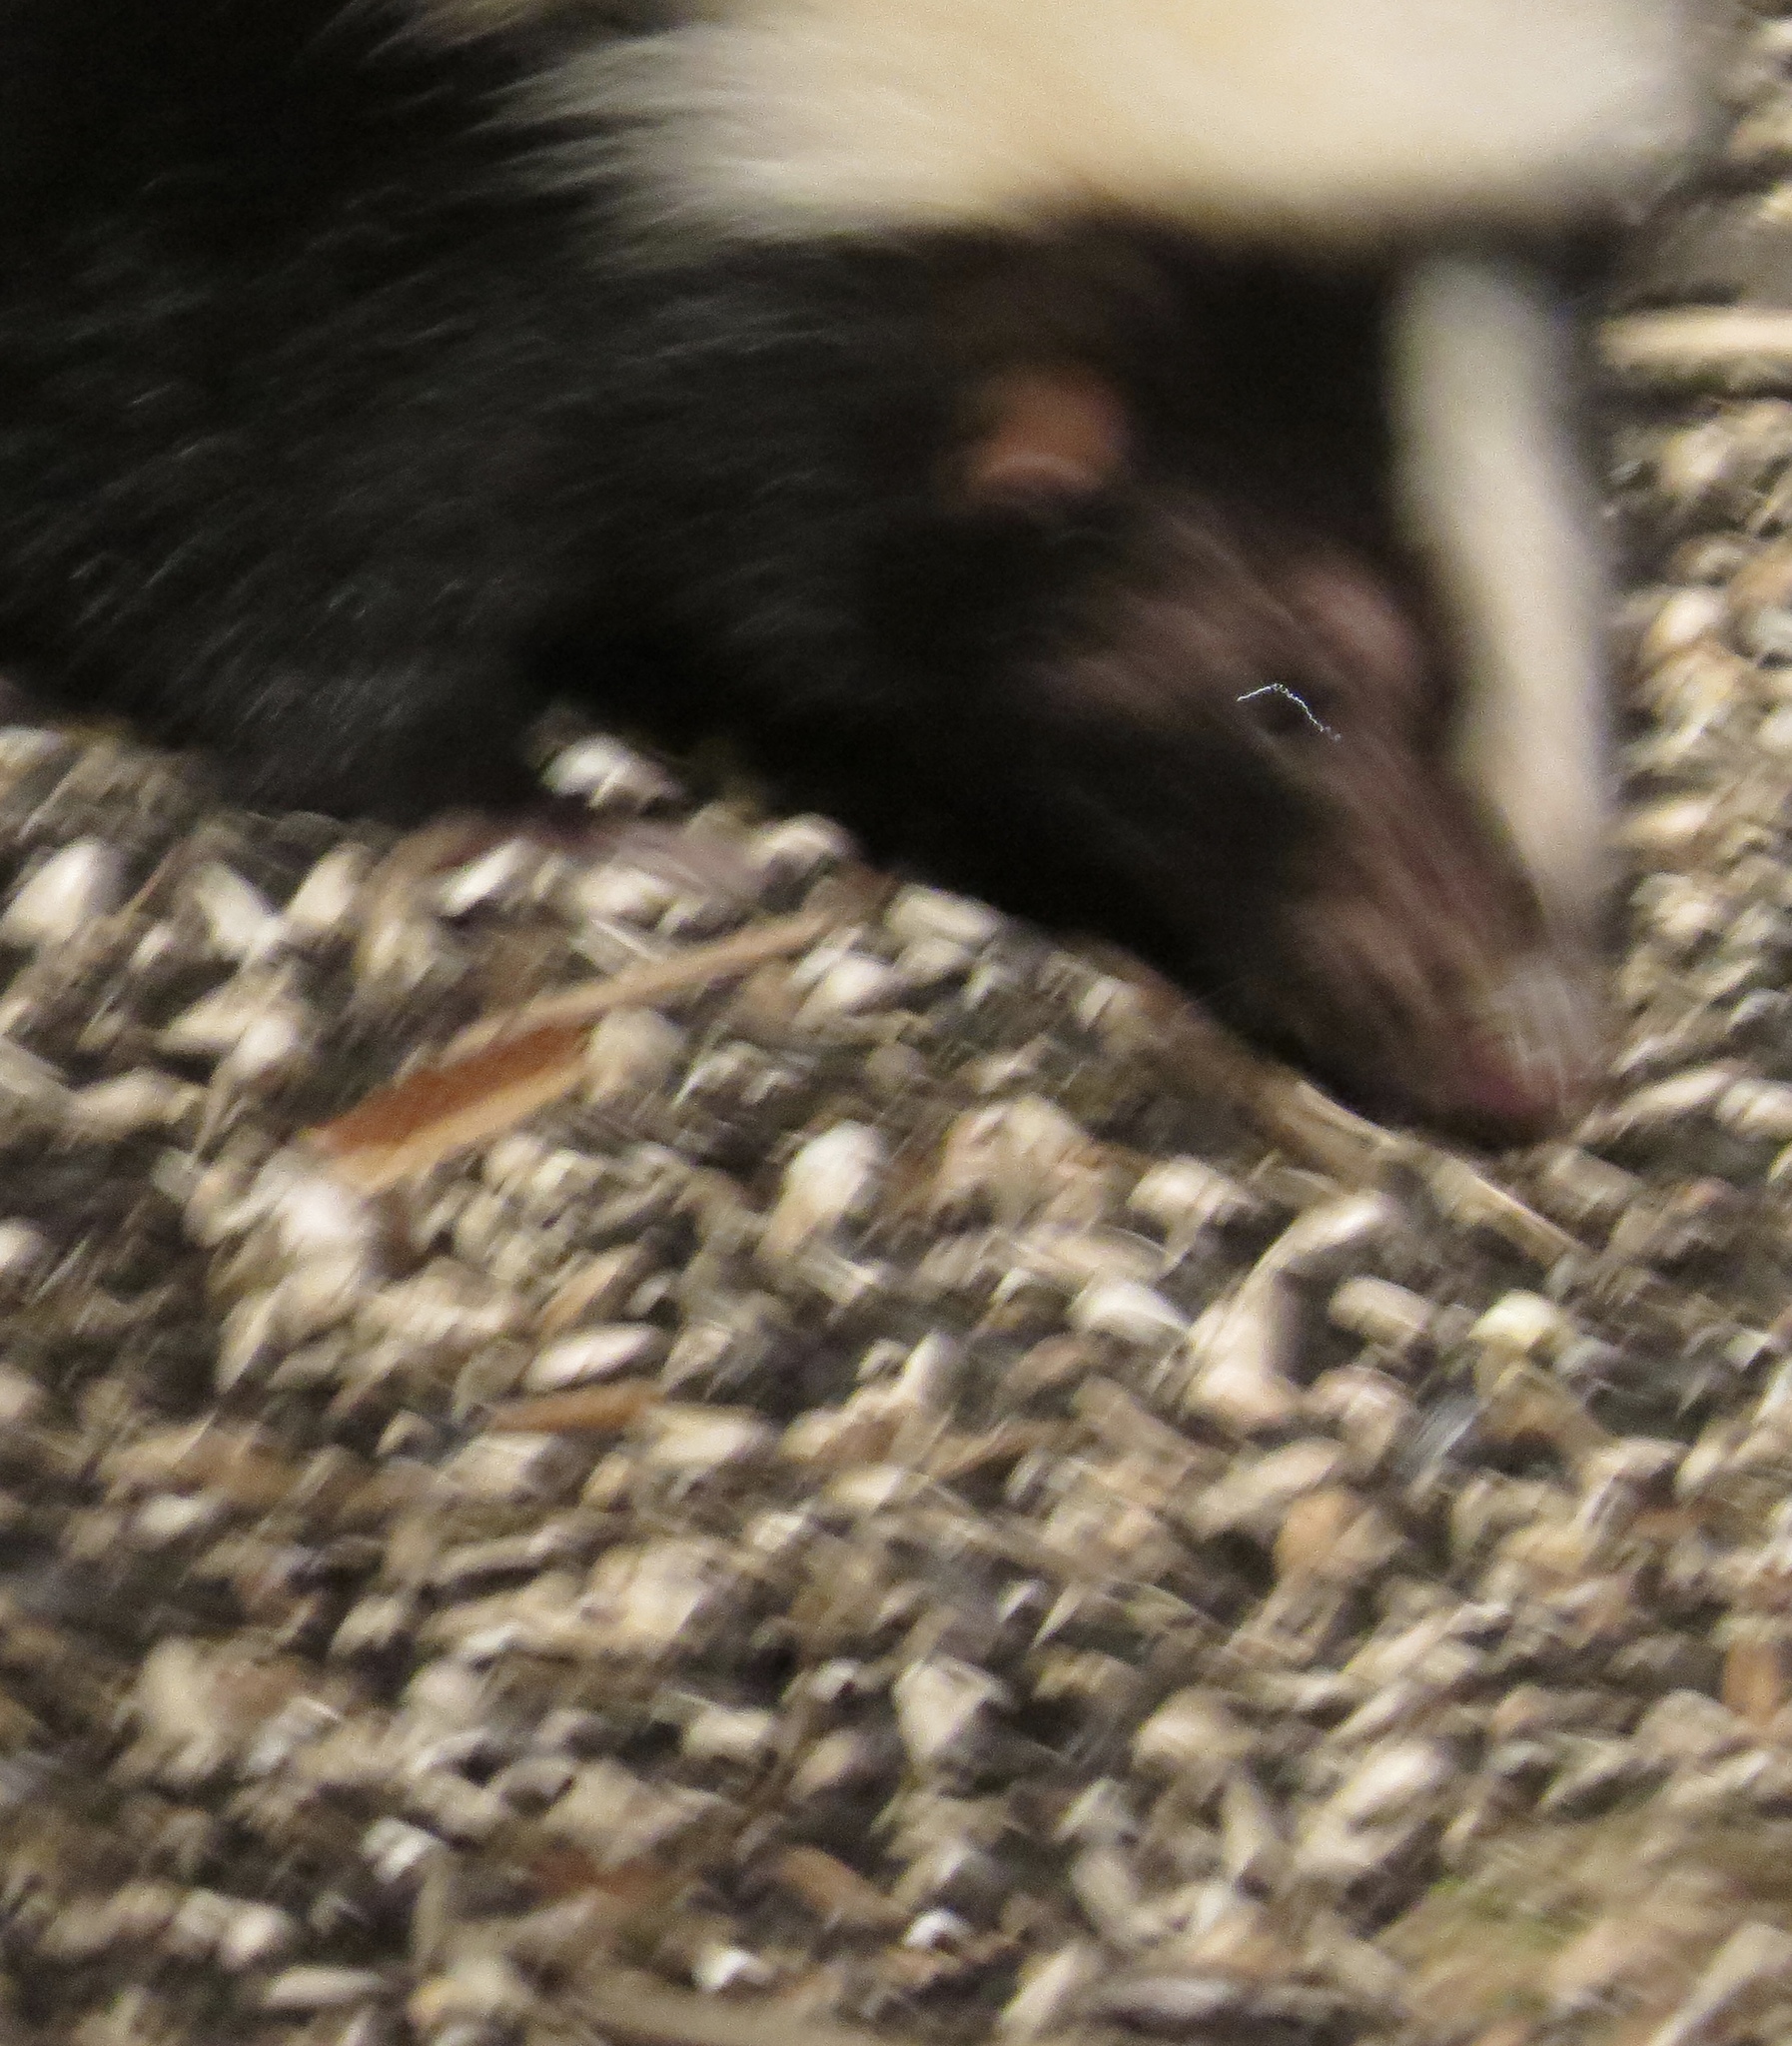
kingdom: Animalia
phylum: Chordata
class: Mammalia
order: Carnivora
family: Mephitidae
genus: Mephitis
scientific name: Mephitis mephitis
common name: Striped skunk
